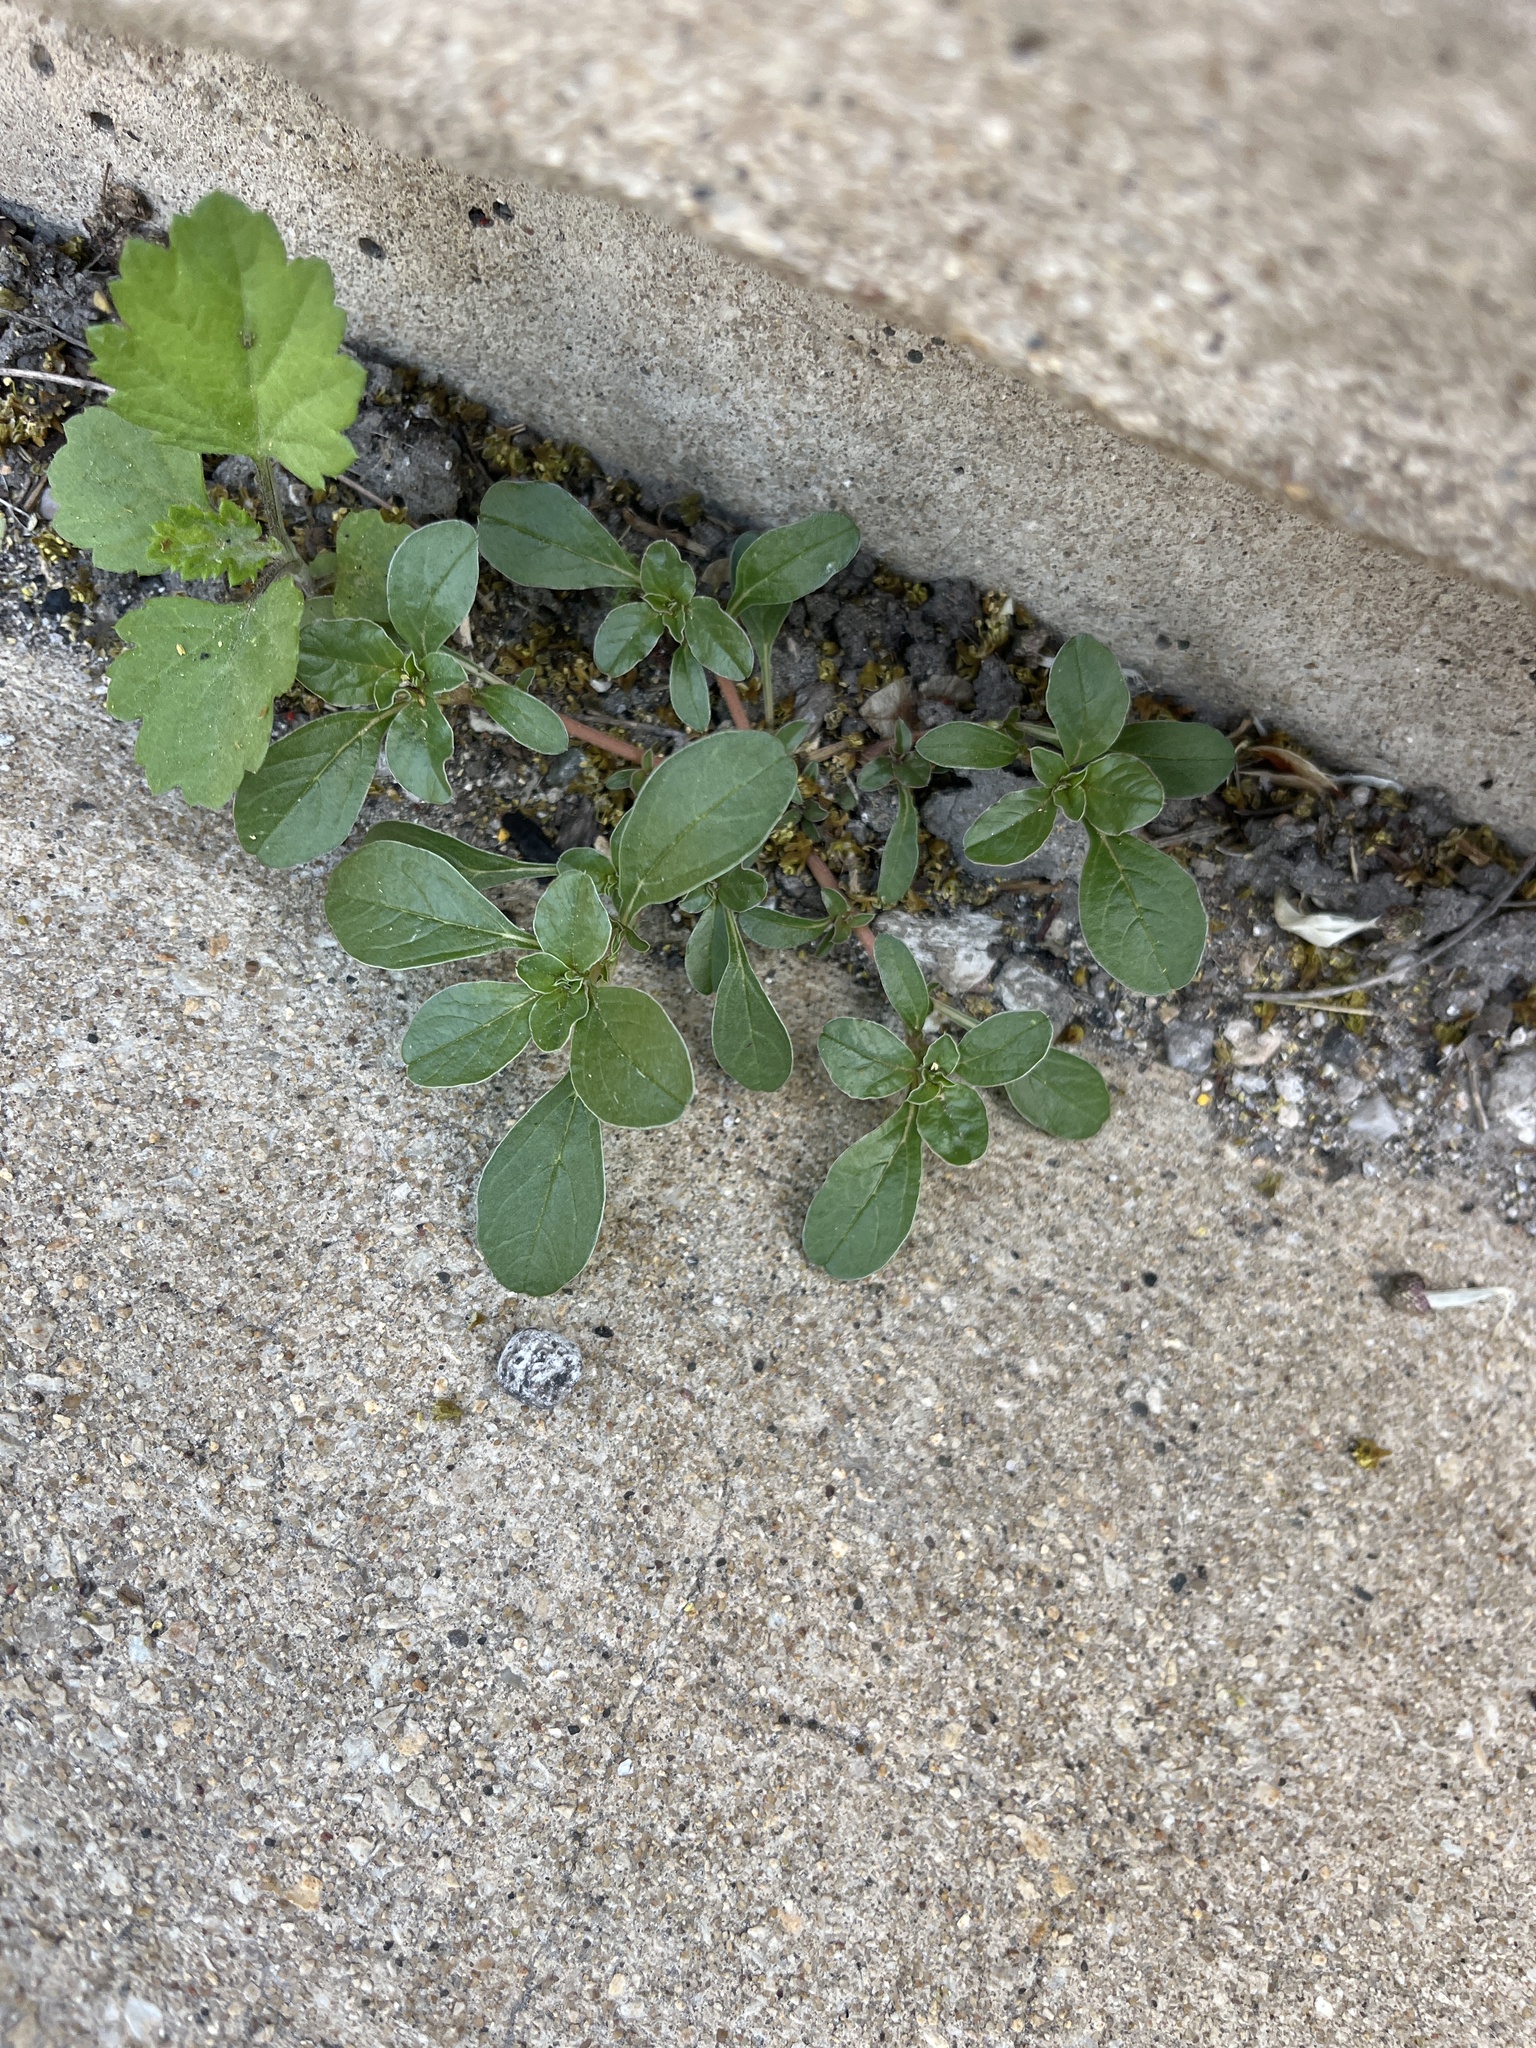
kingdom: Plantae
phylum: Tracheophyta
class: Magnoliopsida
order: Caryophyllales
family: Amaranthaceae
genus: Amaranthus
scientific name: Amaranthus blitoides
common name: Prostrate pigweed
